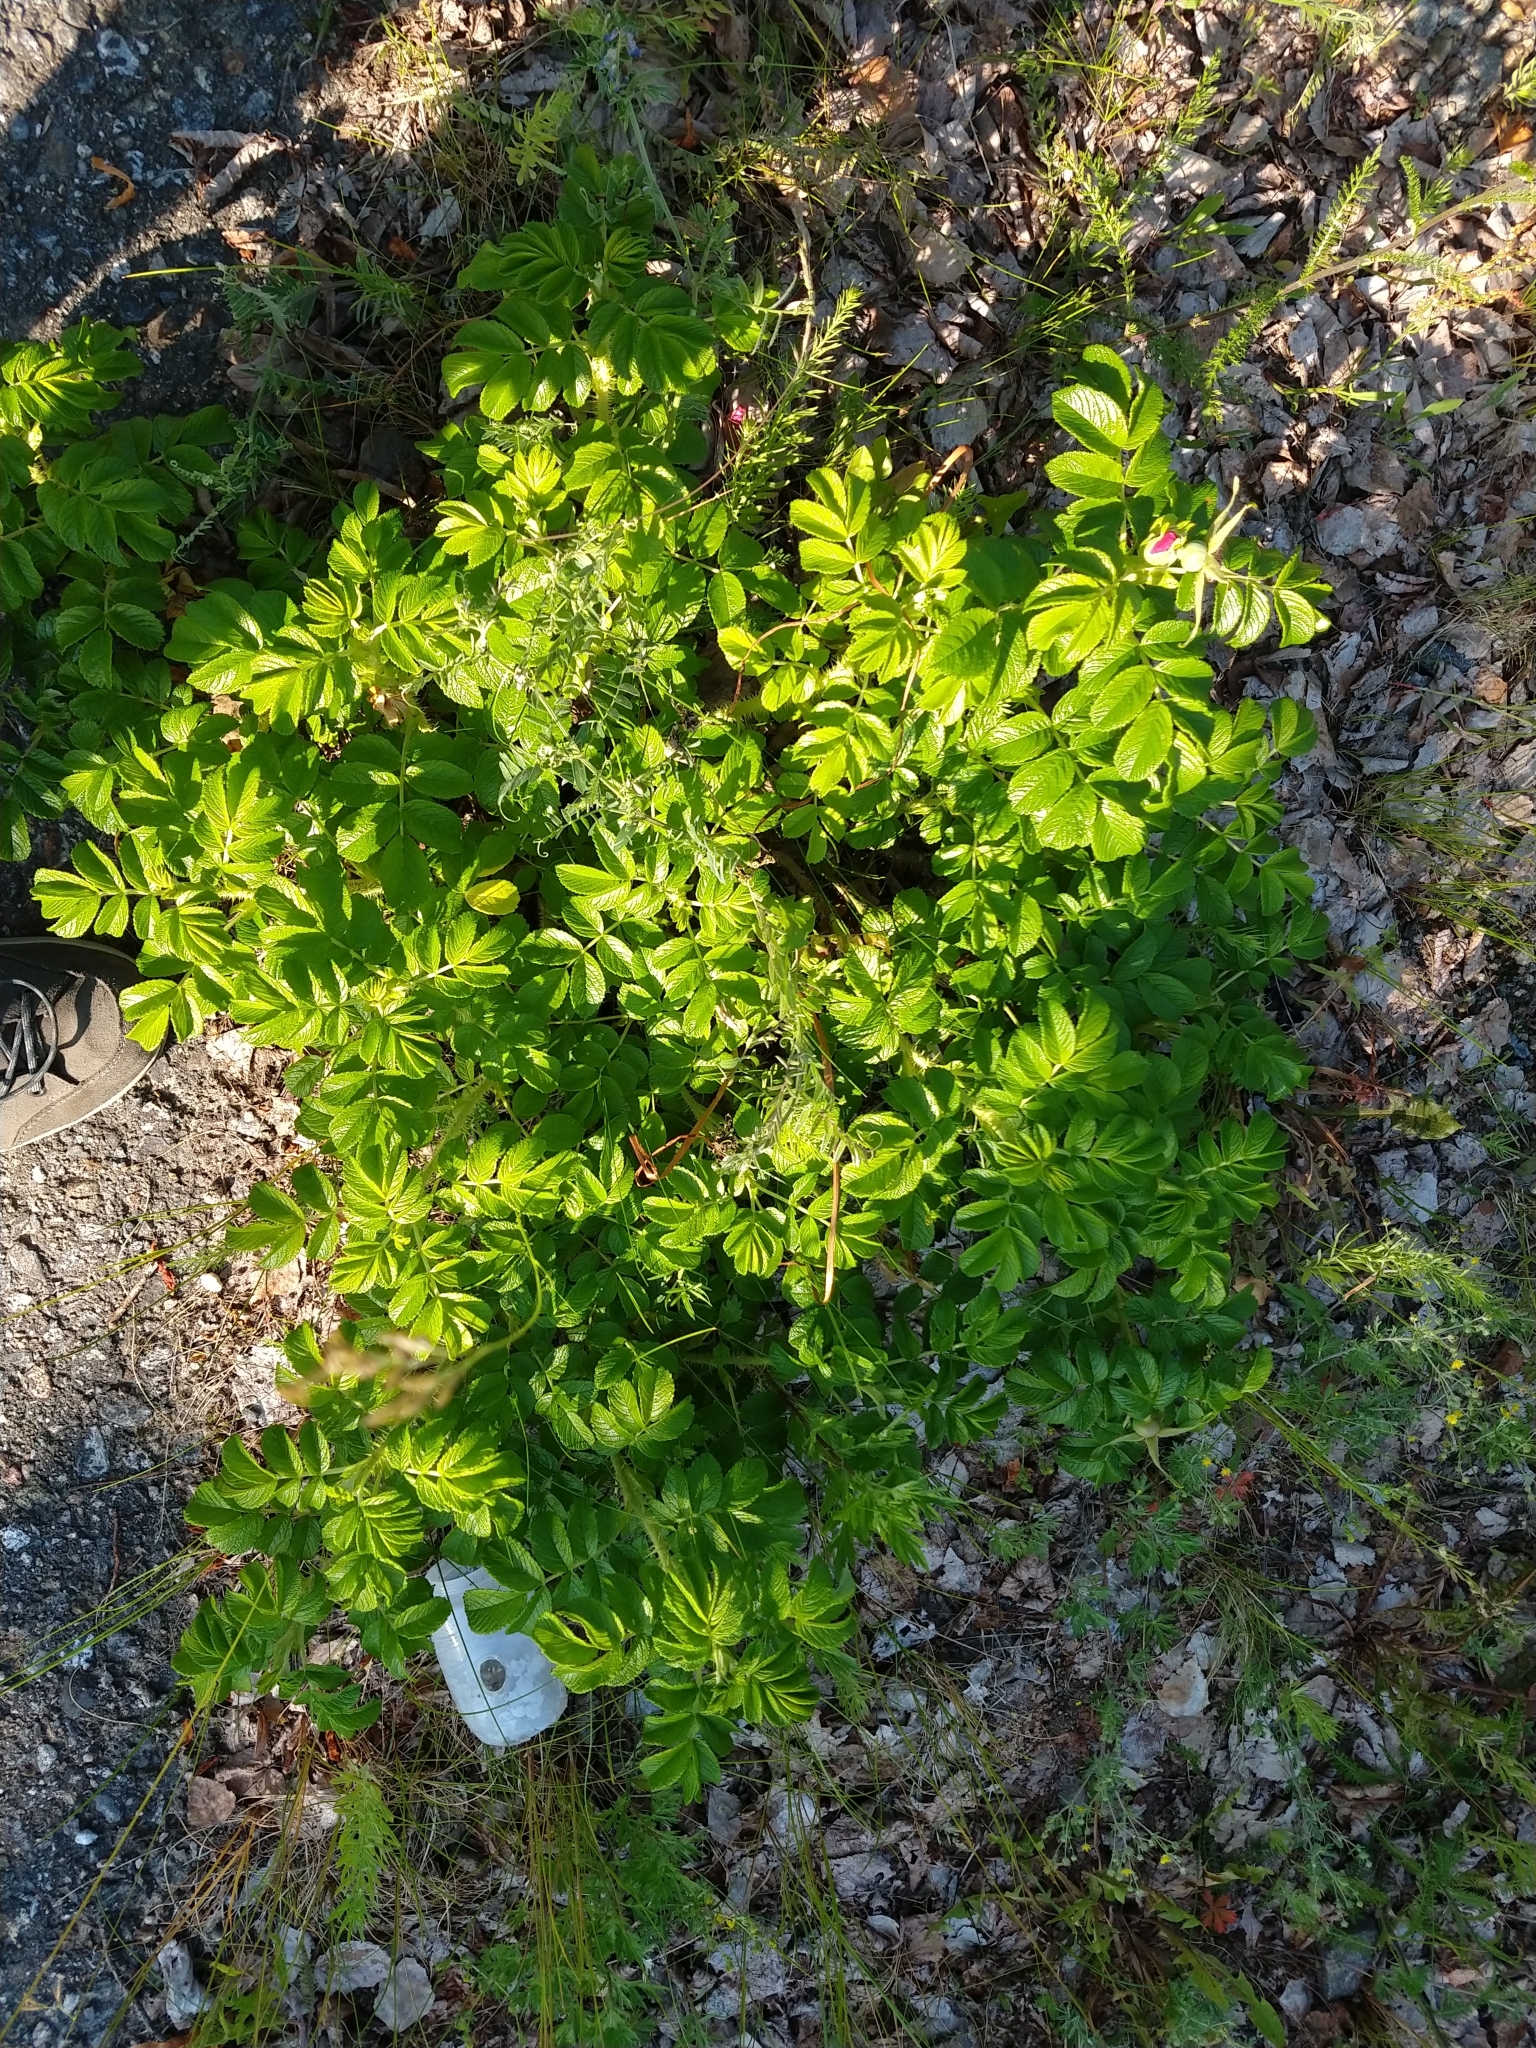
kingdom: Plantae
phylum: Tracheophyta
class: Magnoliopsida
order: Rosales
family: Rosaceae
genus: Rosa
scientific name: Rosa rugosa
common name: Japanese rose
